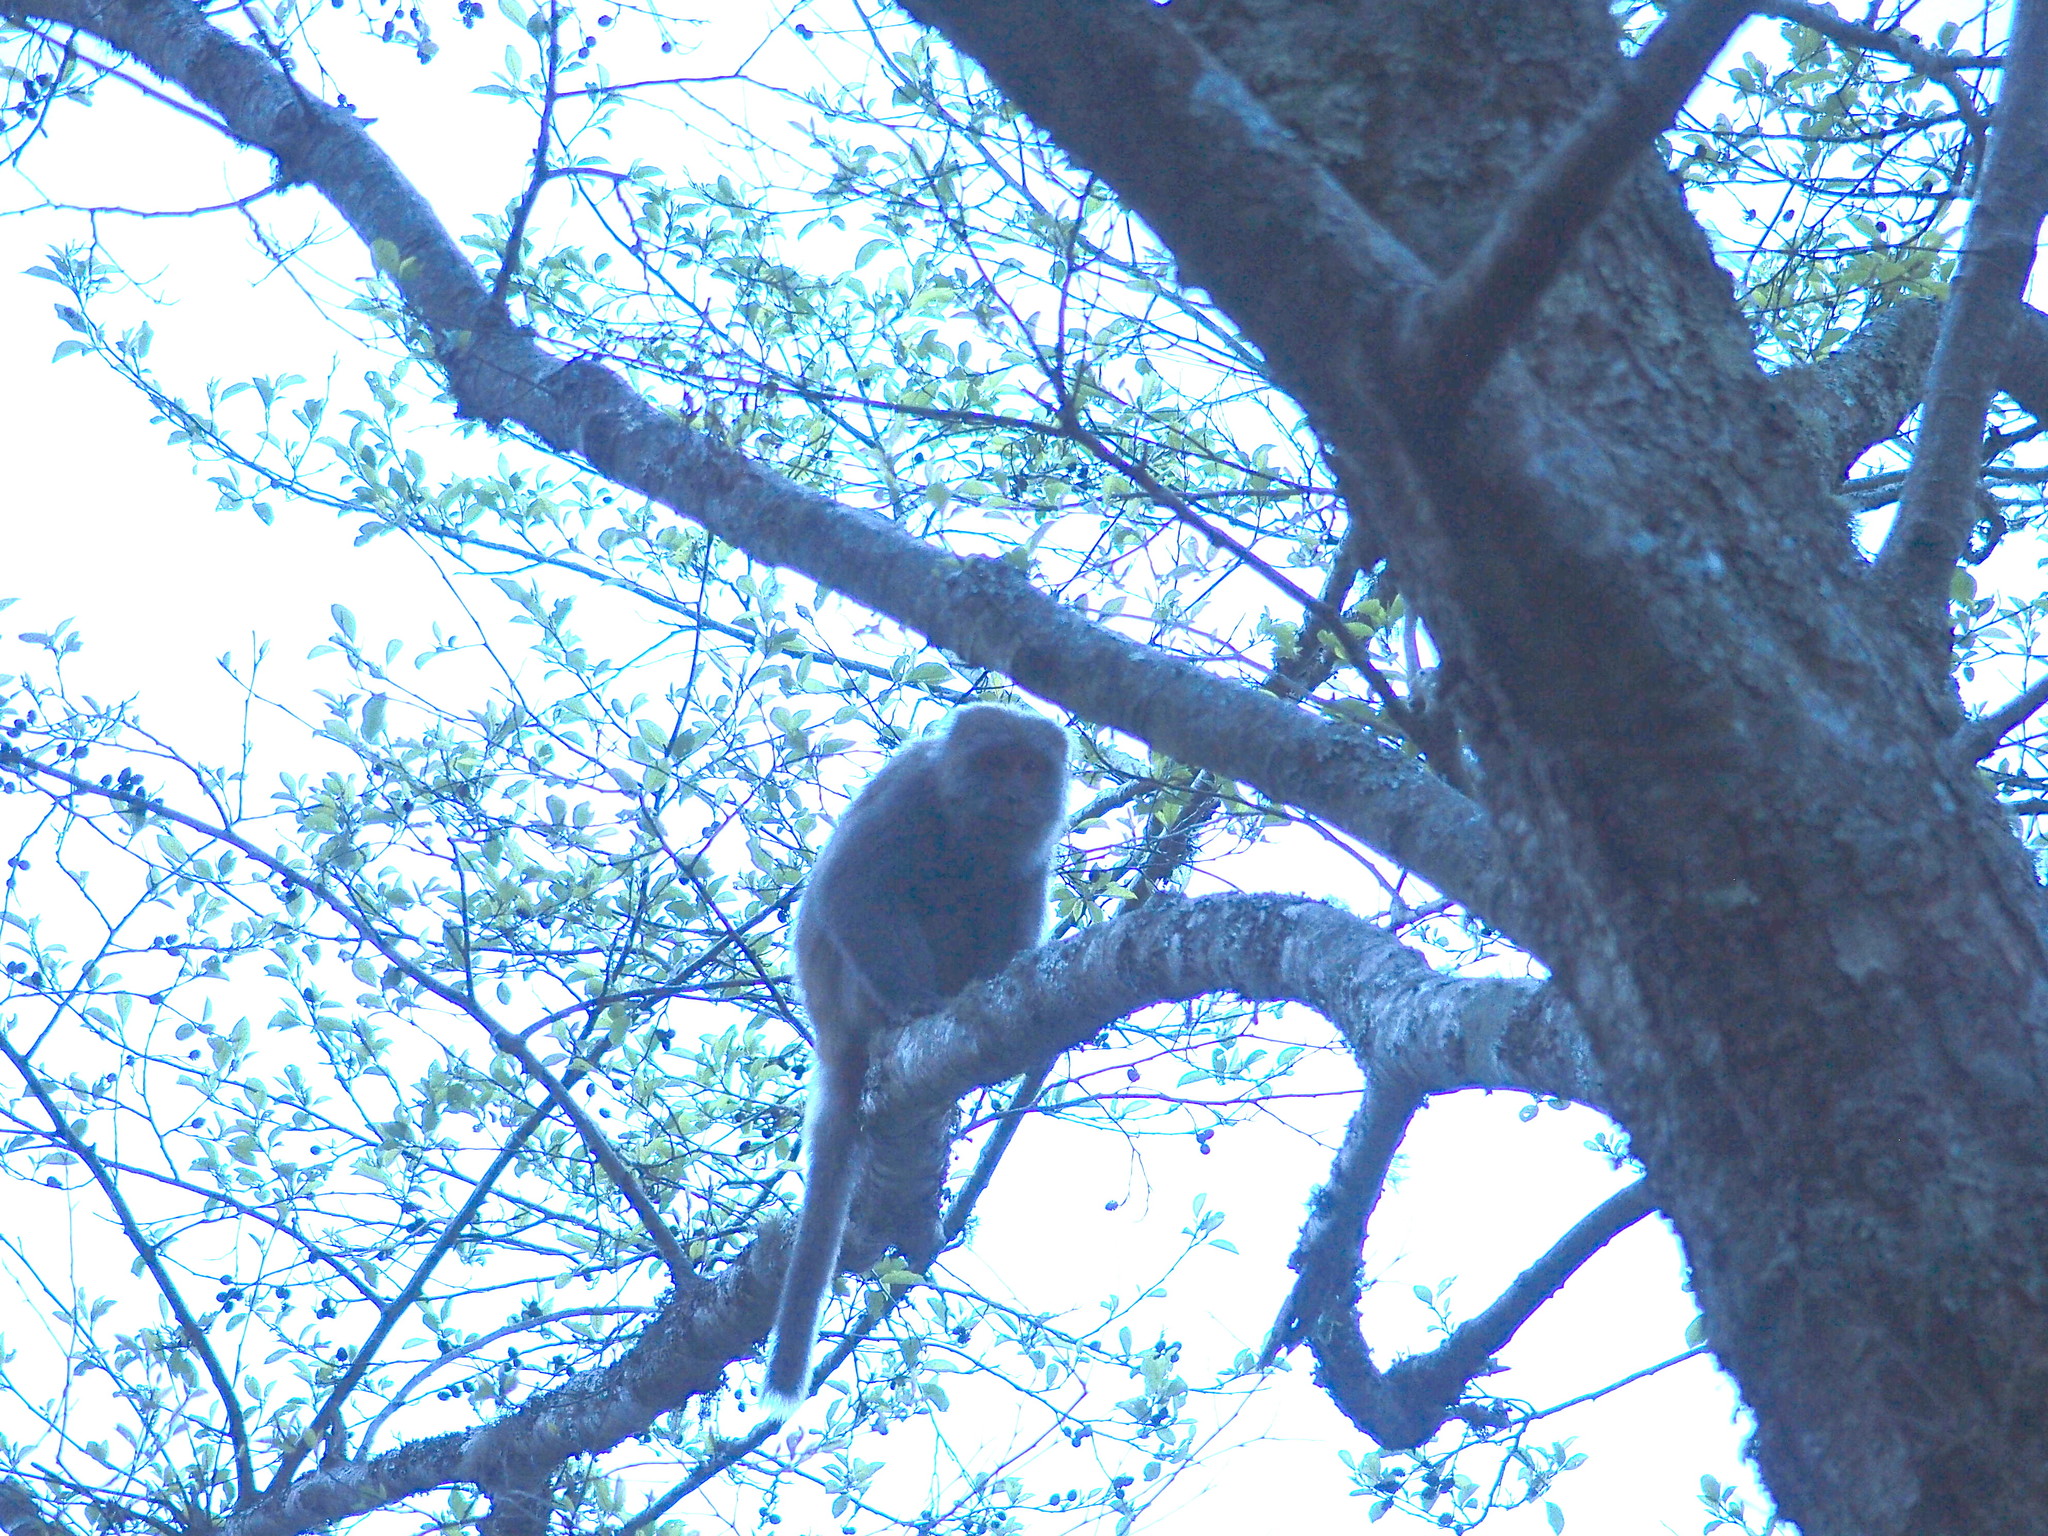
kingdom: Animalia
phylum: Chordata
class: Mammalia
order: Primates
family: Cercopithecidae
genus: Macaca
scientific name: Macaca cyclopis
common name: Formosan rock macaque
